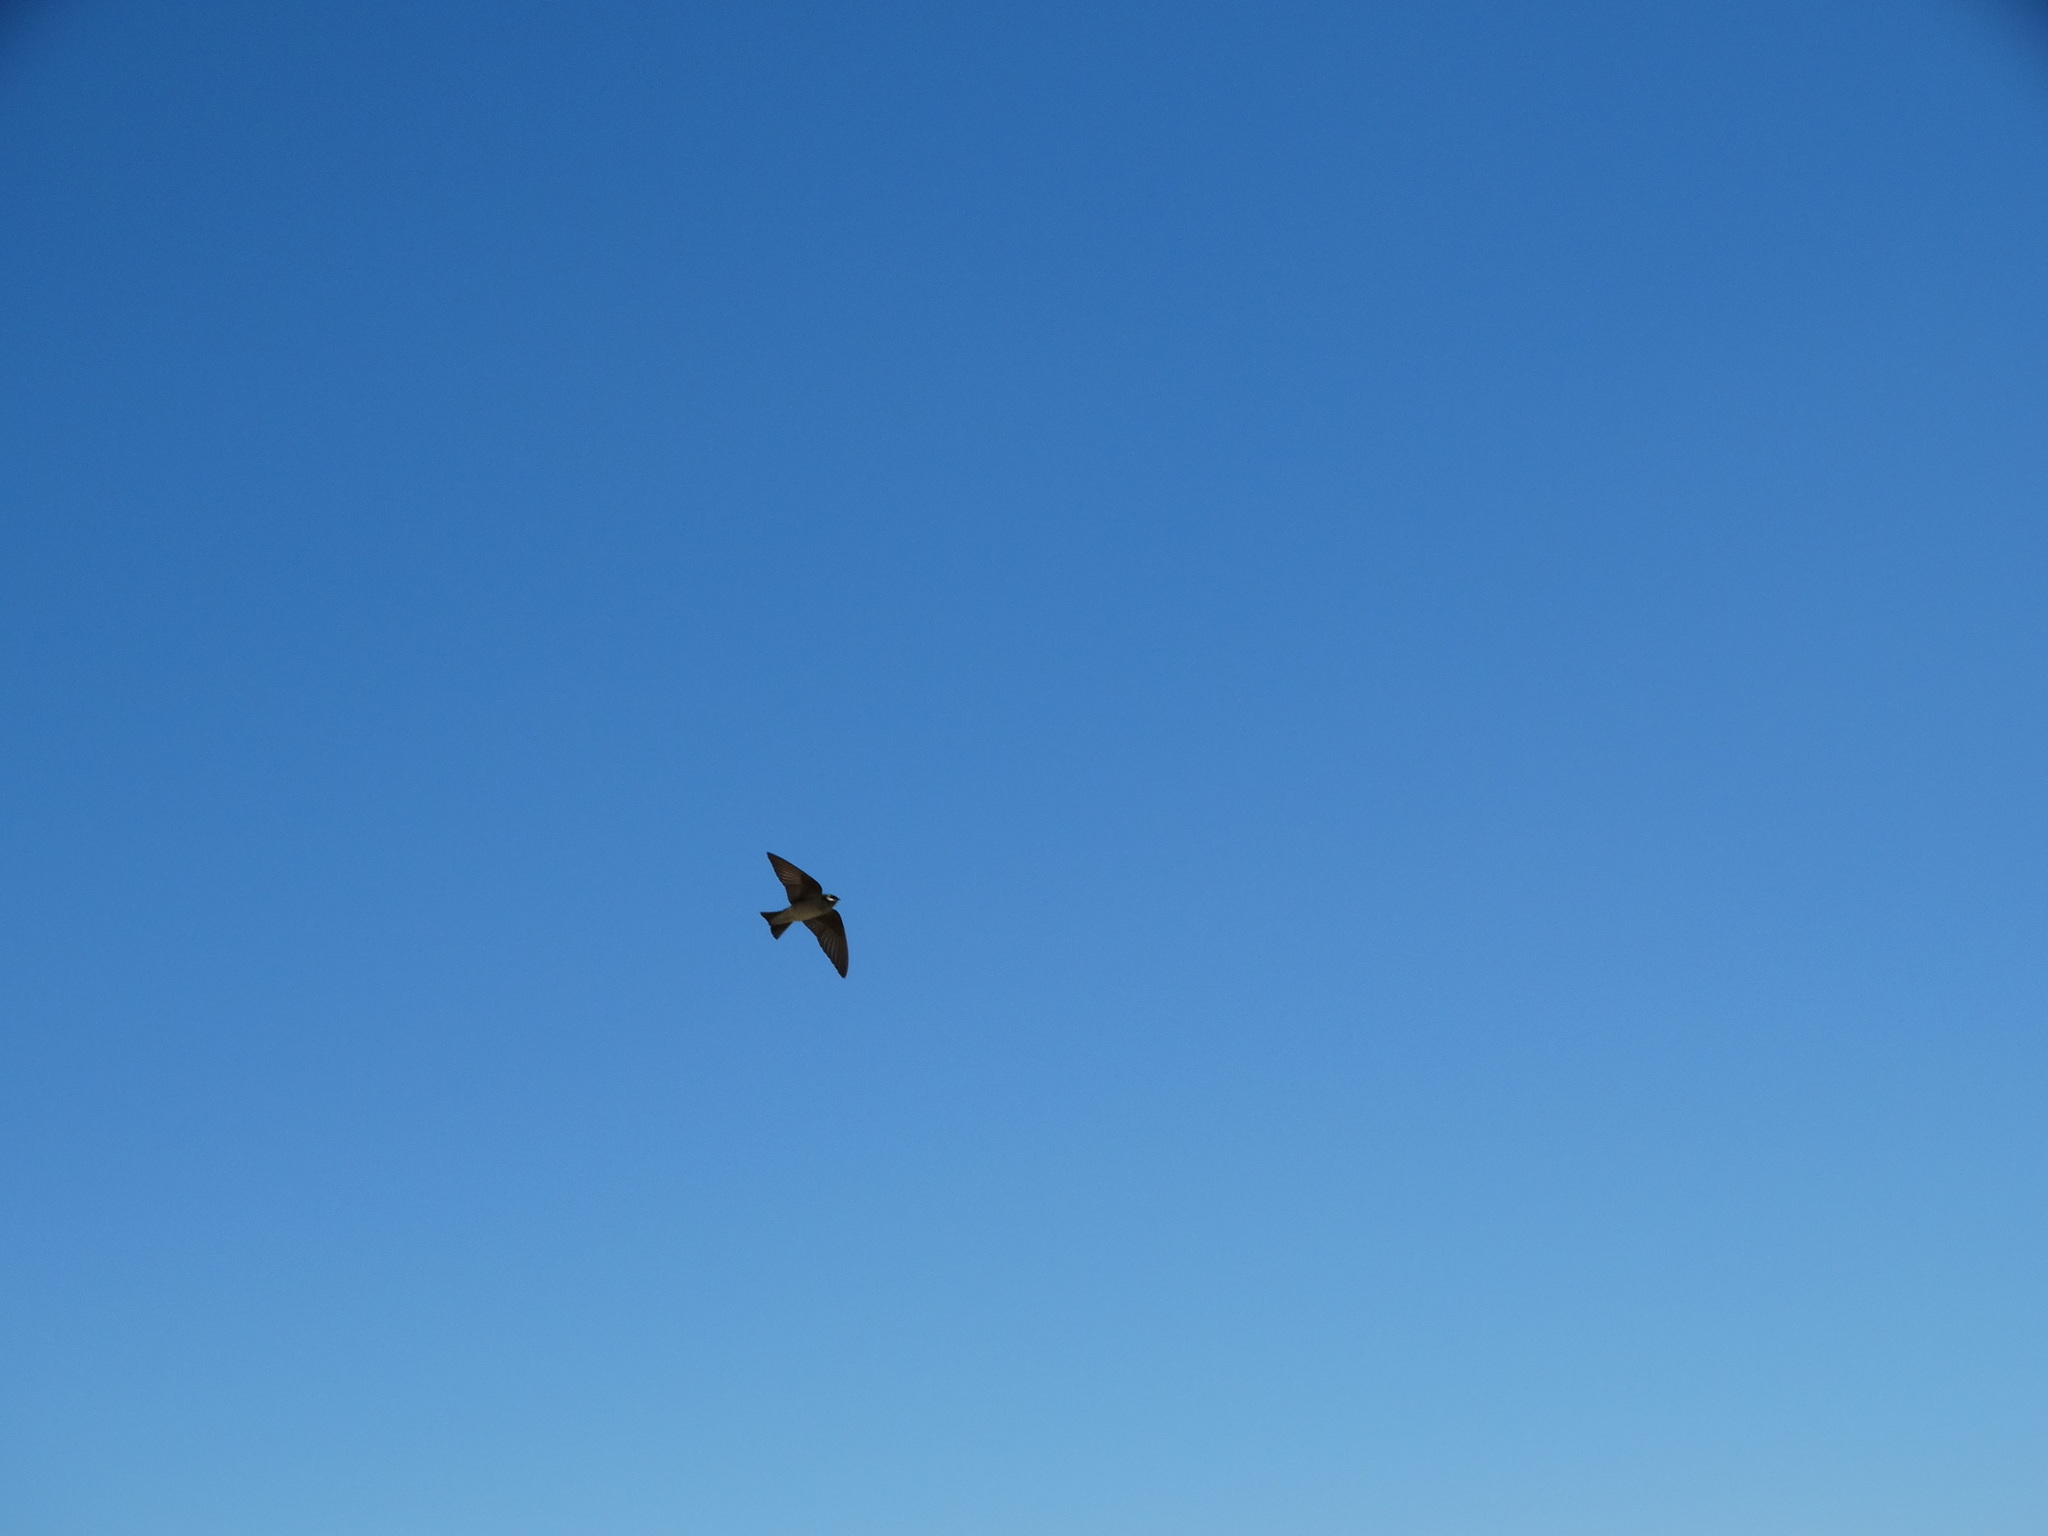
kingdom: Animalia
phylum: Chordata
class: Aves
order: Passeriformes
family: Hirundinidae
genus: Tachycineta
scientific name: Tachycineta thalassina
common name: Violet-green swallow
